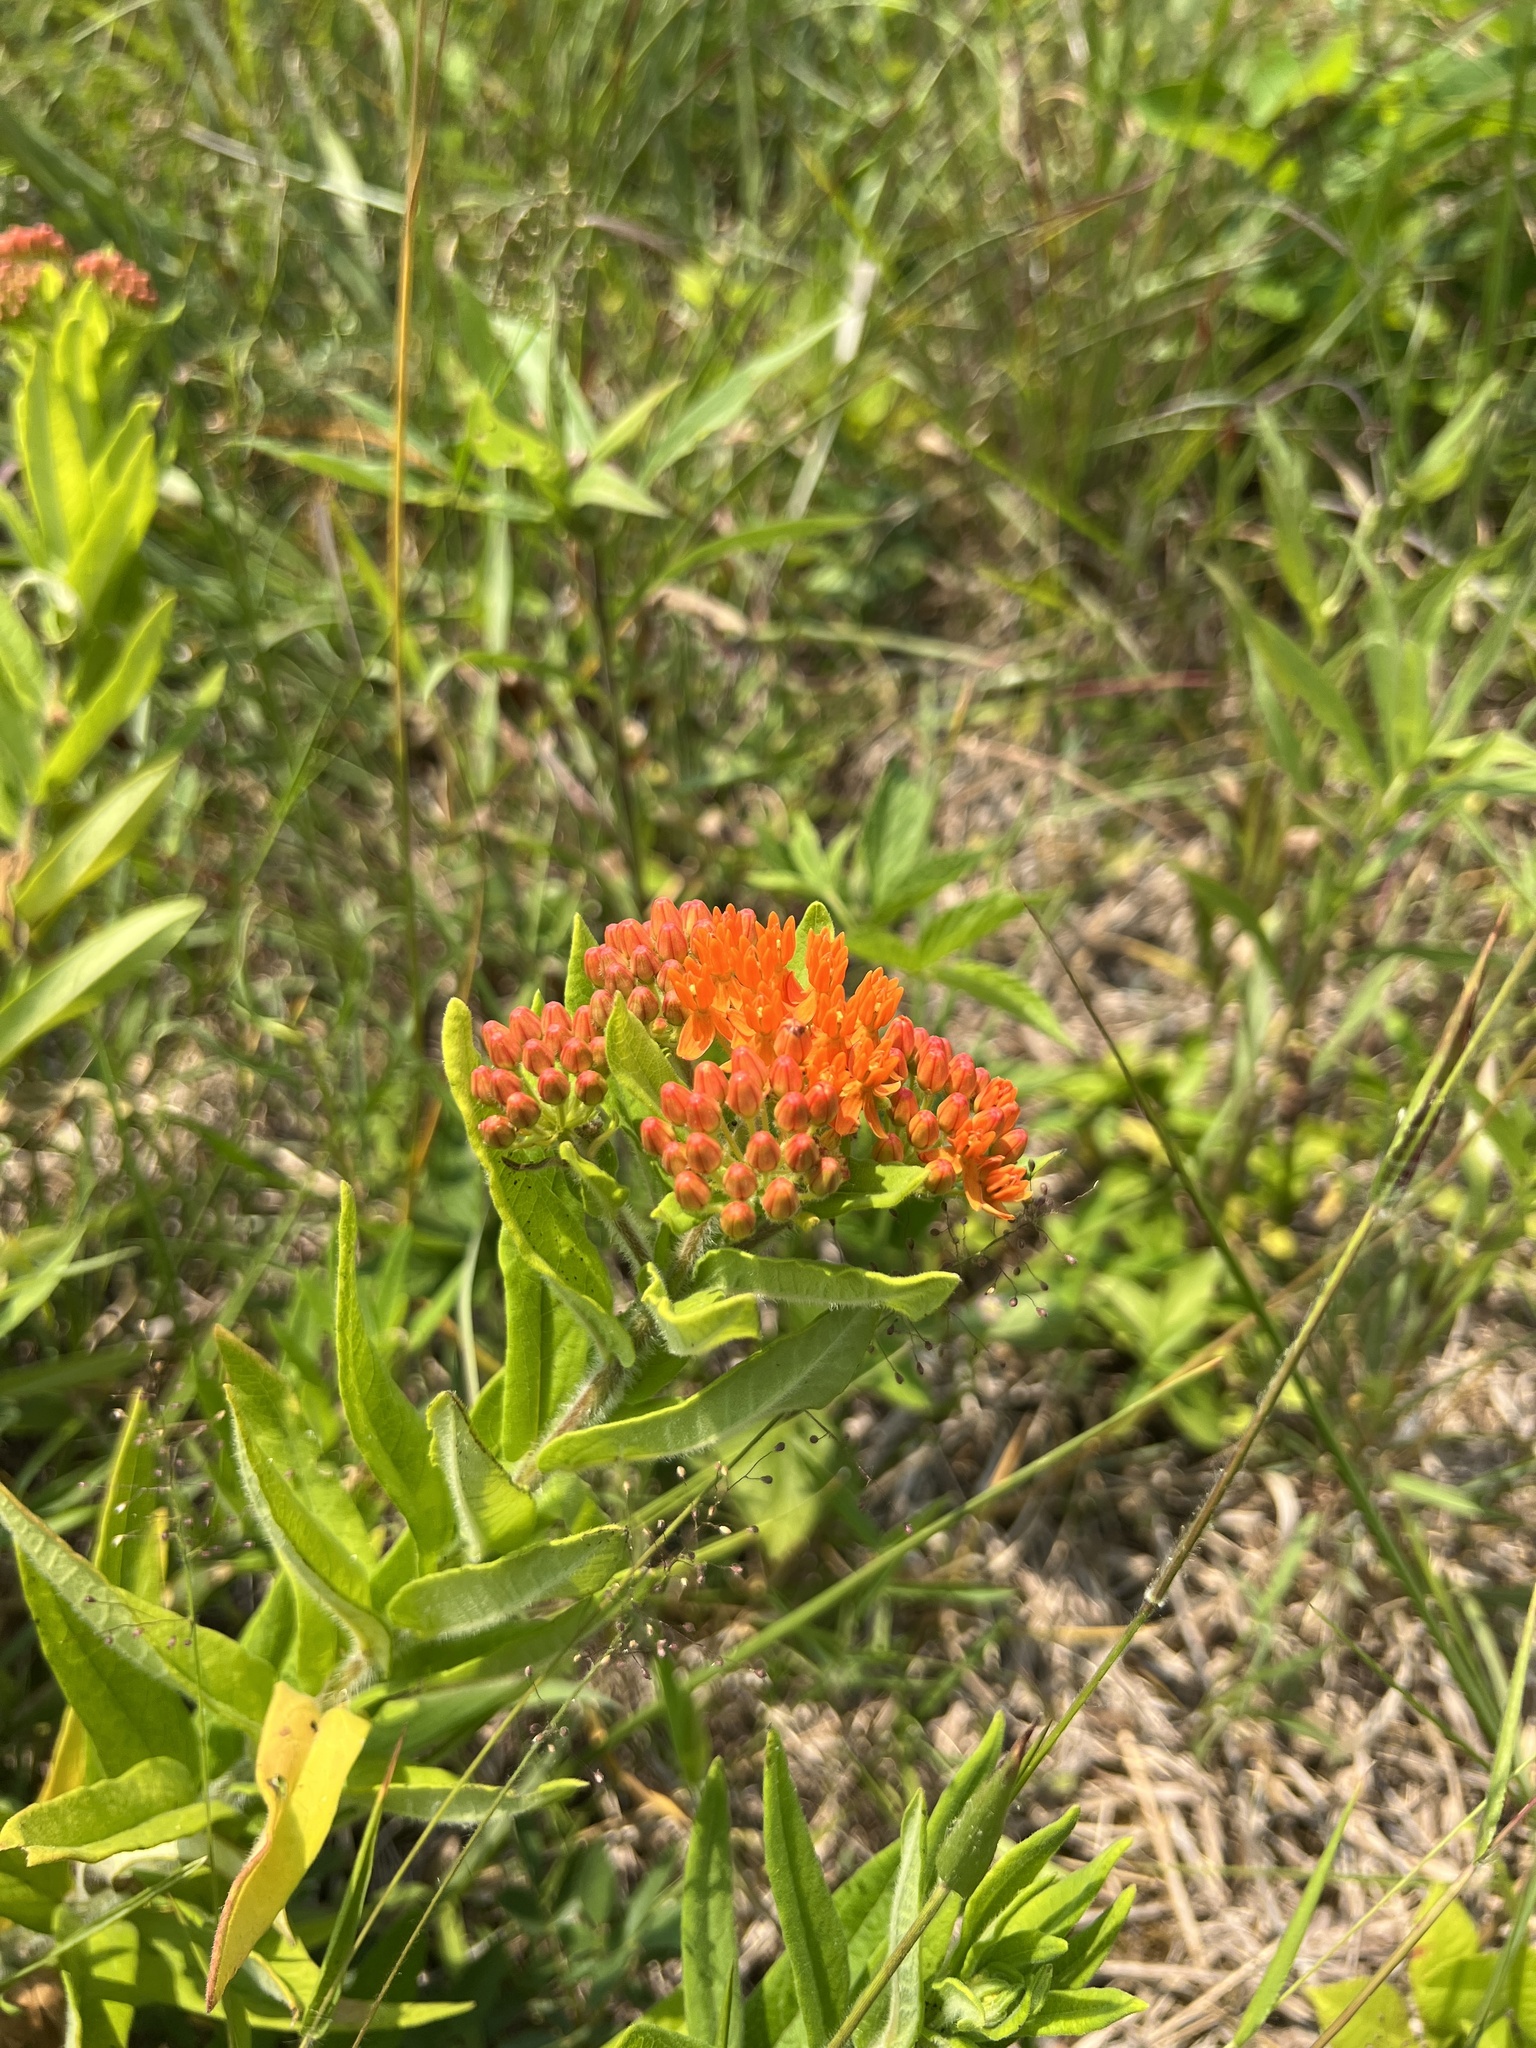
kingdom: Plantae
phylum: Tracheophyta
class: Magnoliopsida
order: Gentianales
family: Apocynaceae
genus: Asclepias
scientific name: Asclepias tuberosa
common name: Butterfly milkweed
